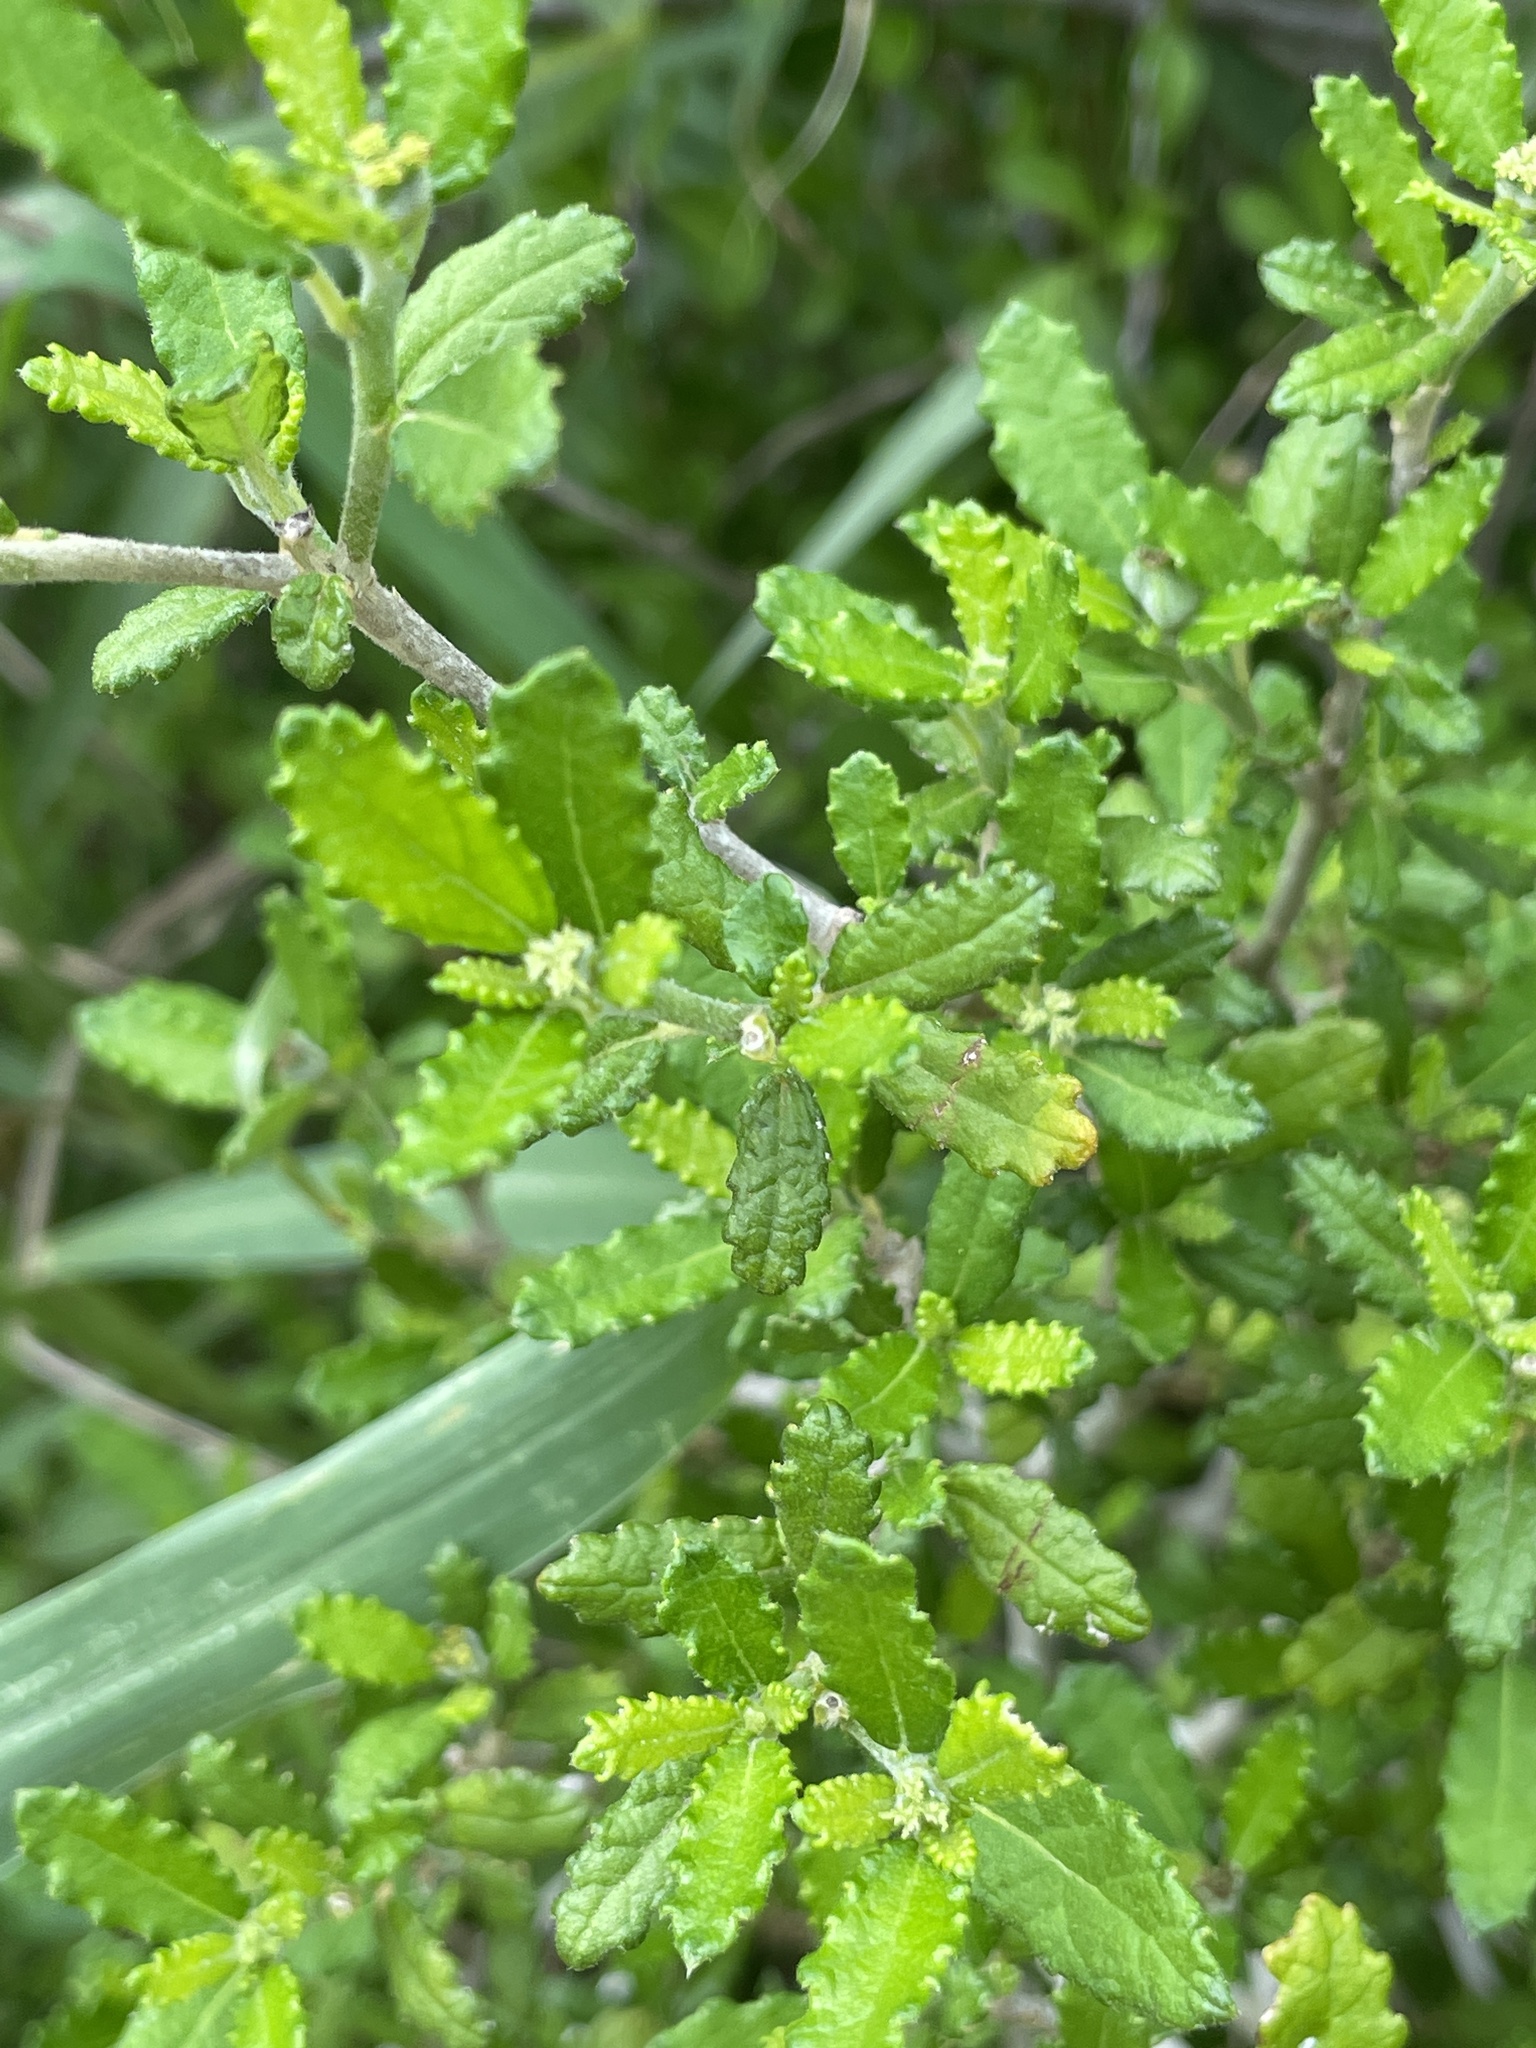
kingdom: Plantae
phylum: Tracheophyta
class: Magnoliopsida
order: Malpighiales
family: Euphorbiaceae
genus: Bernardia
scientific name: Bernardia myricifolia
